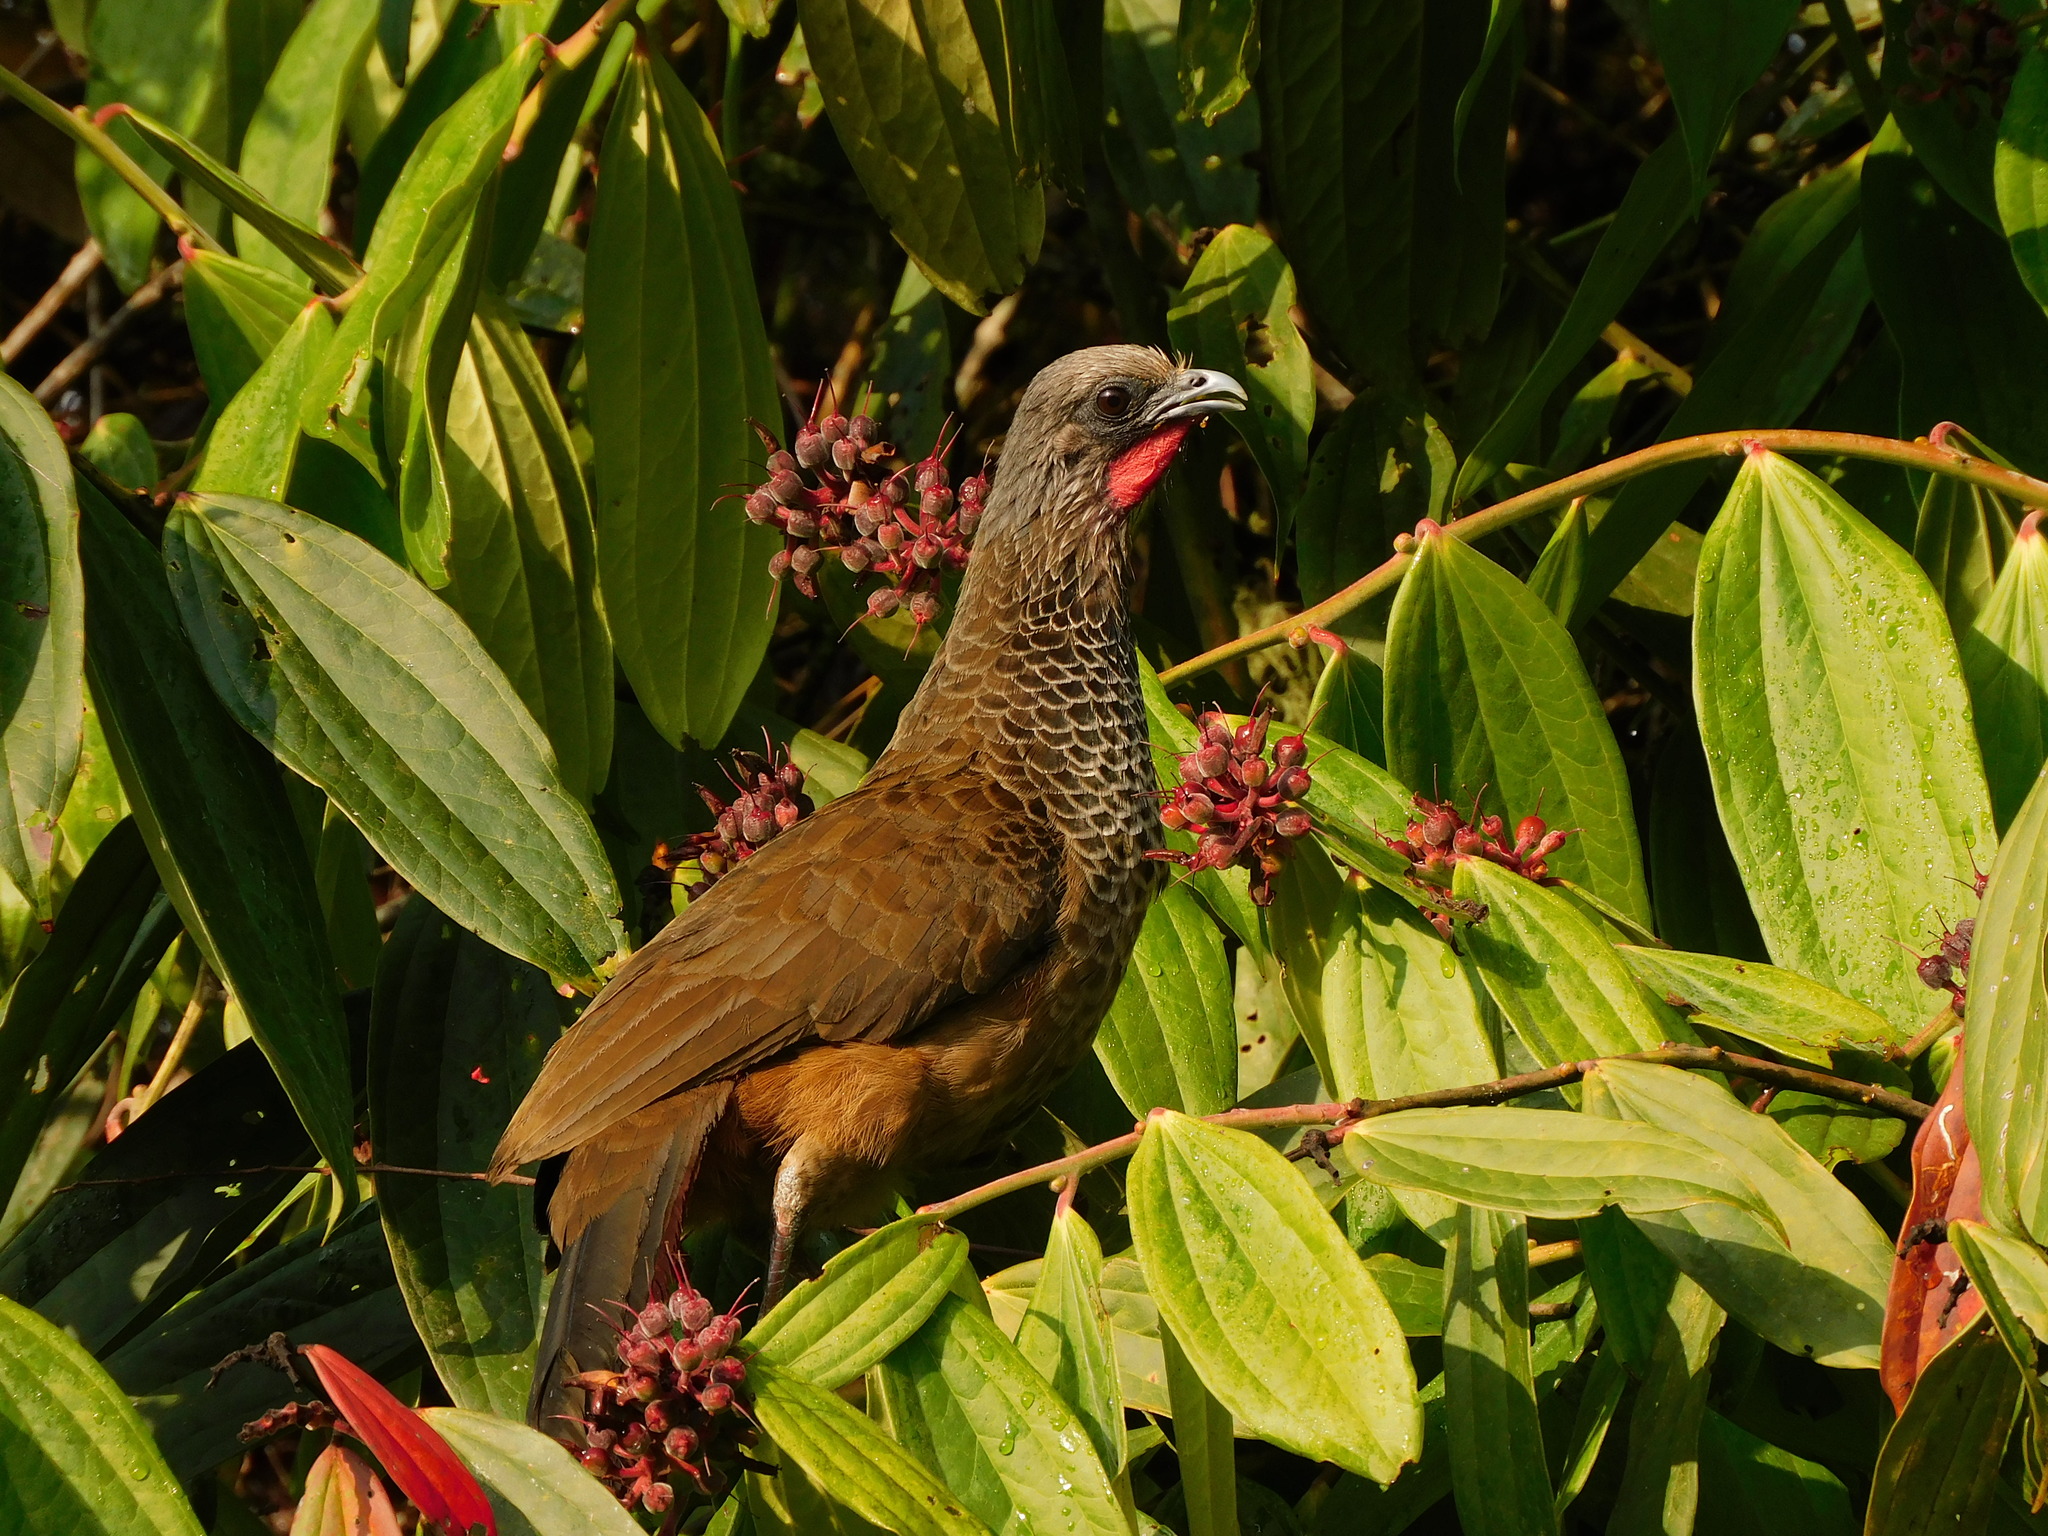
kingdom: Animalia
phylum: Chordata
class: Aves
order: Galliformes
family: Cracidae
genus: Ortalis
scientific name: Ortalis columbiana
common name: Colombian chachalaca
